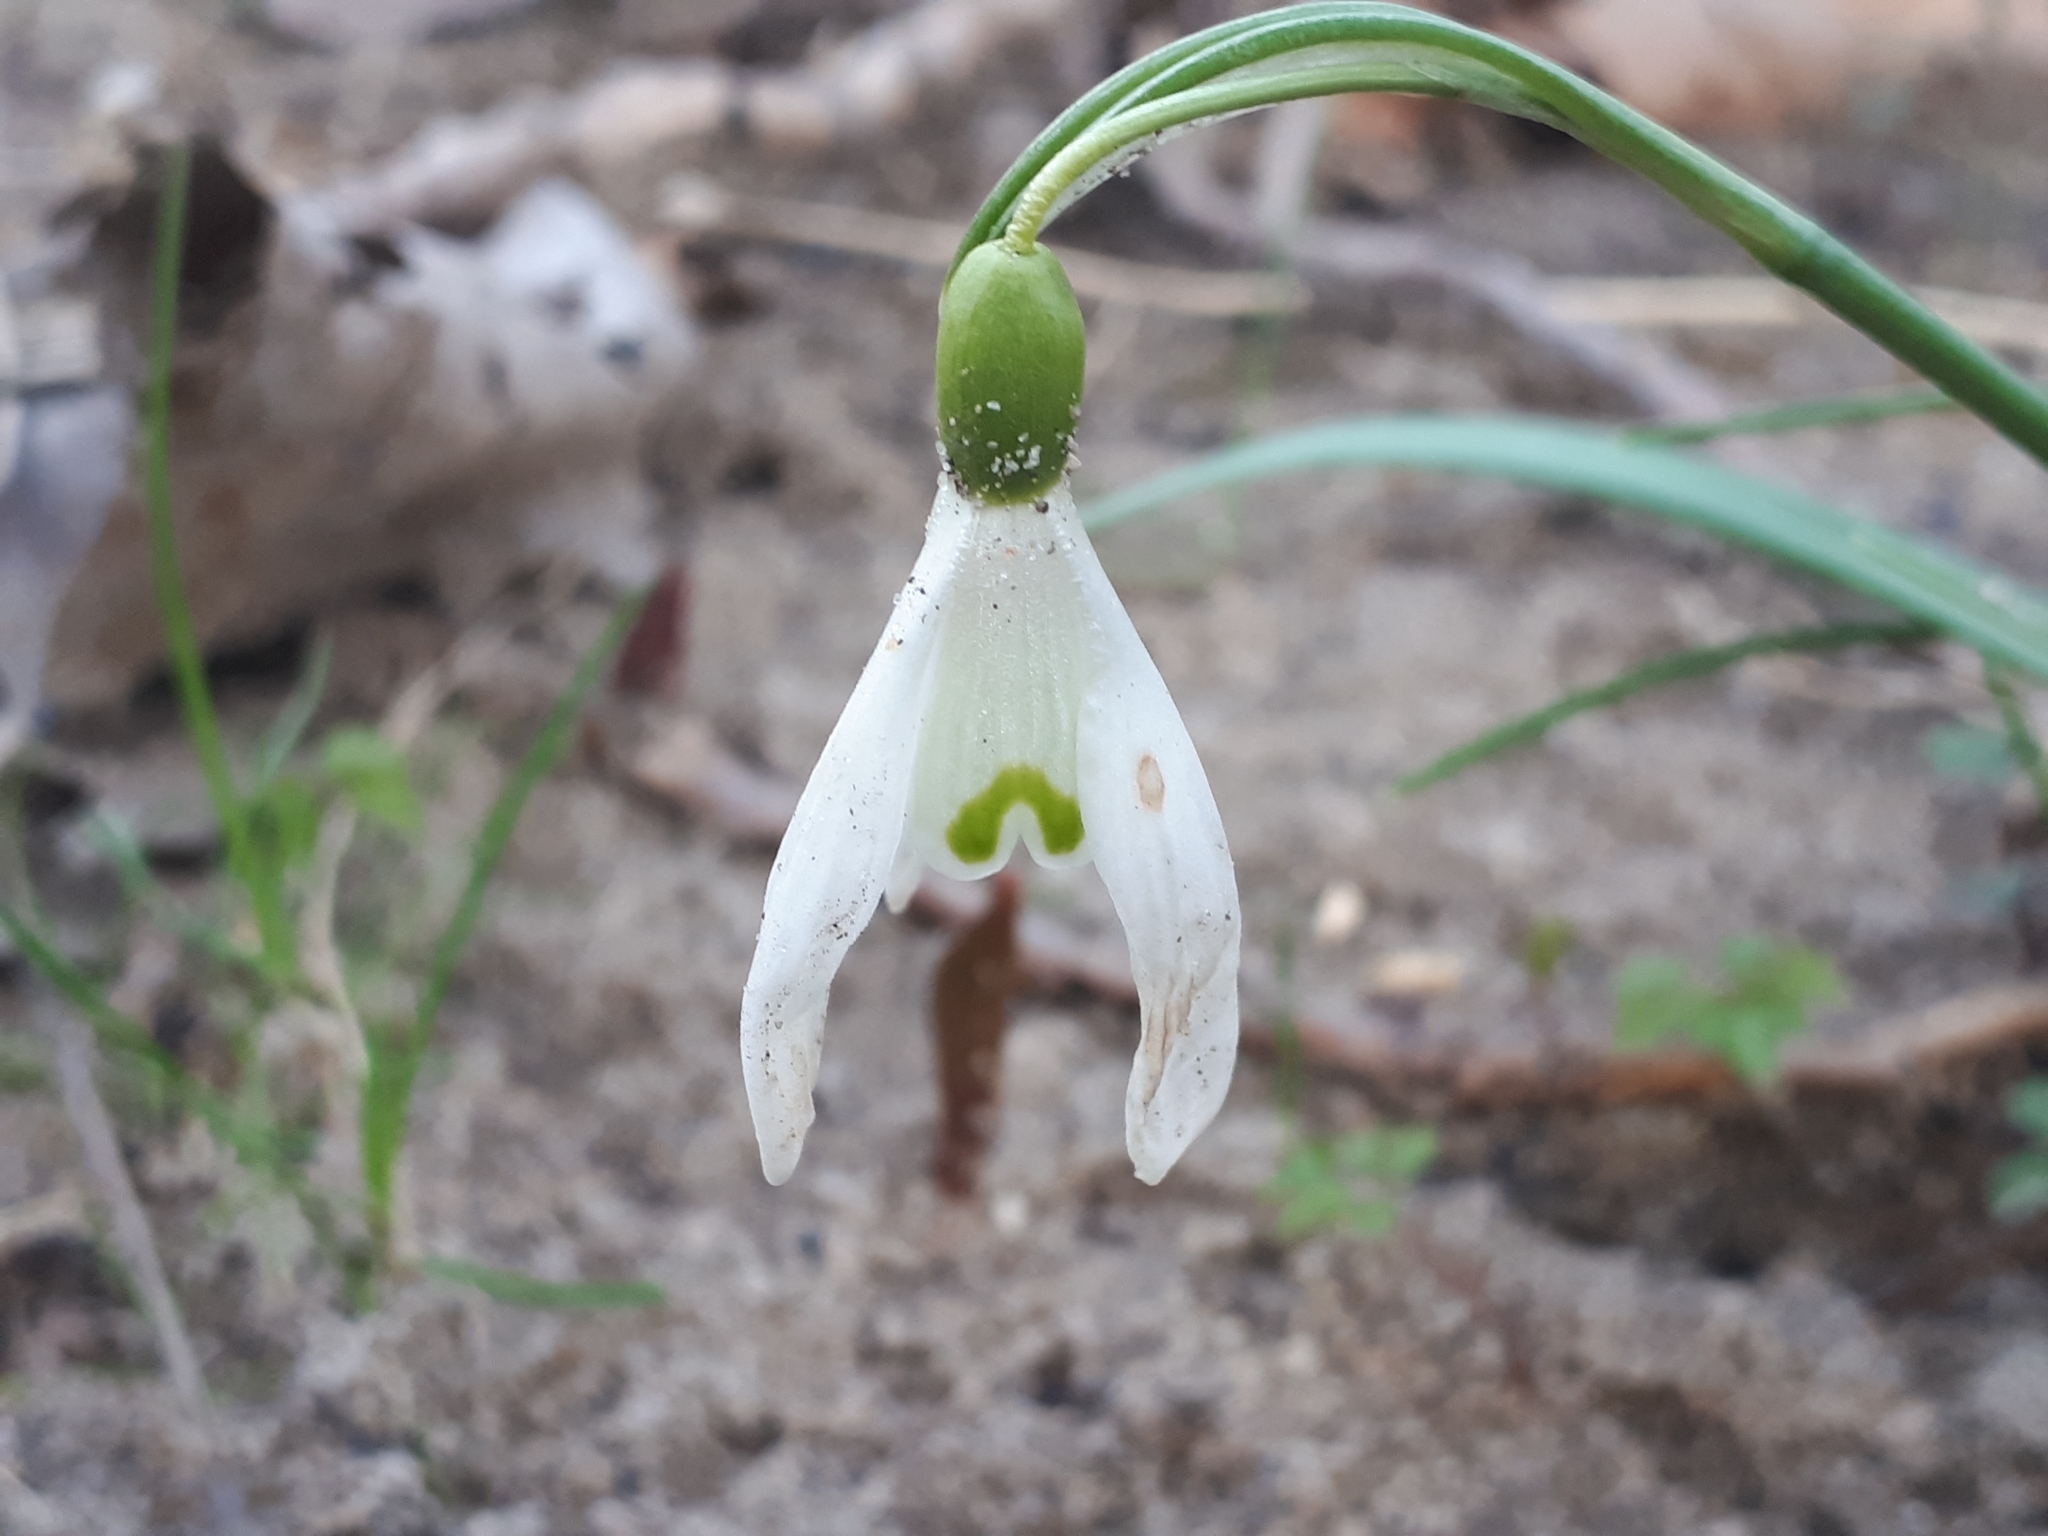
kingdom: Plantae
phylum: Tracheophyta
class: Liliopsida
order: Asparagales
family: Amaryllidaceae
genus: Galanthus
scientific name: Galanthus nivalis
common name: Snowdrop
